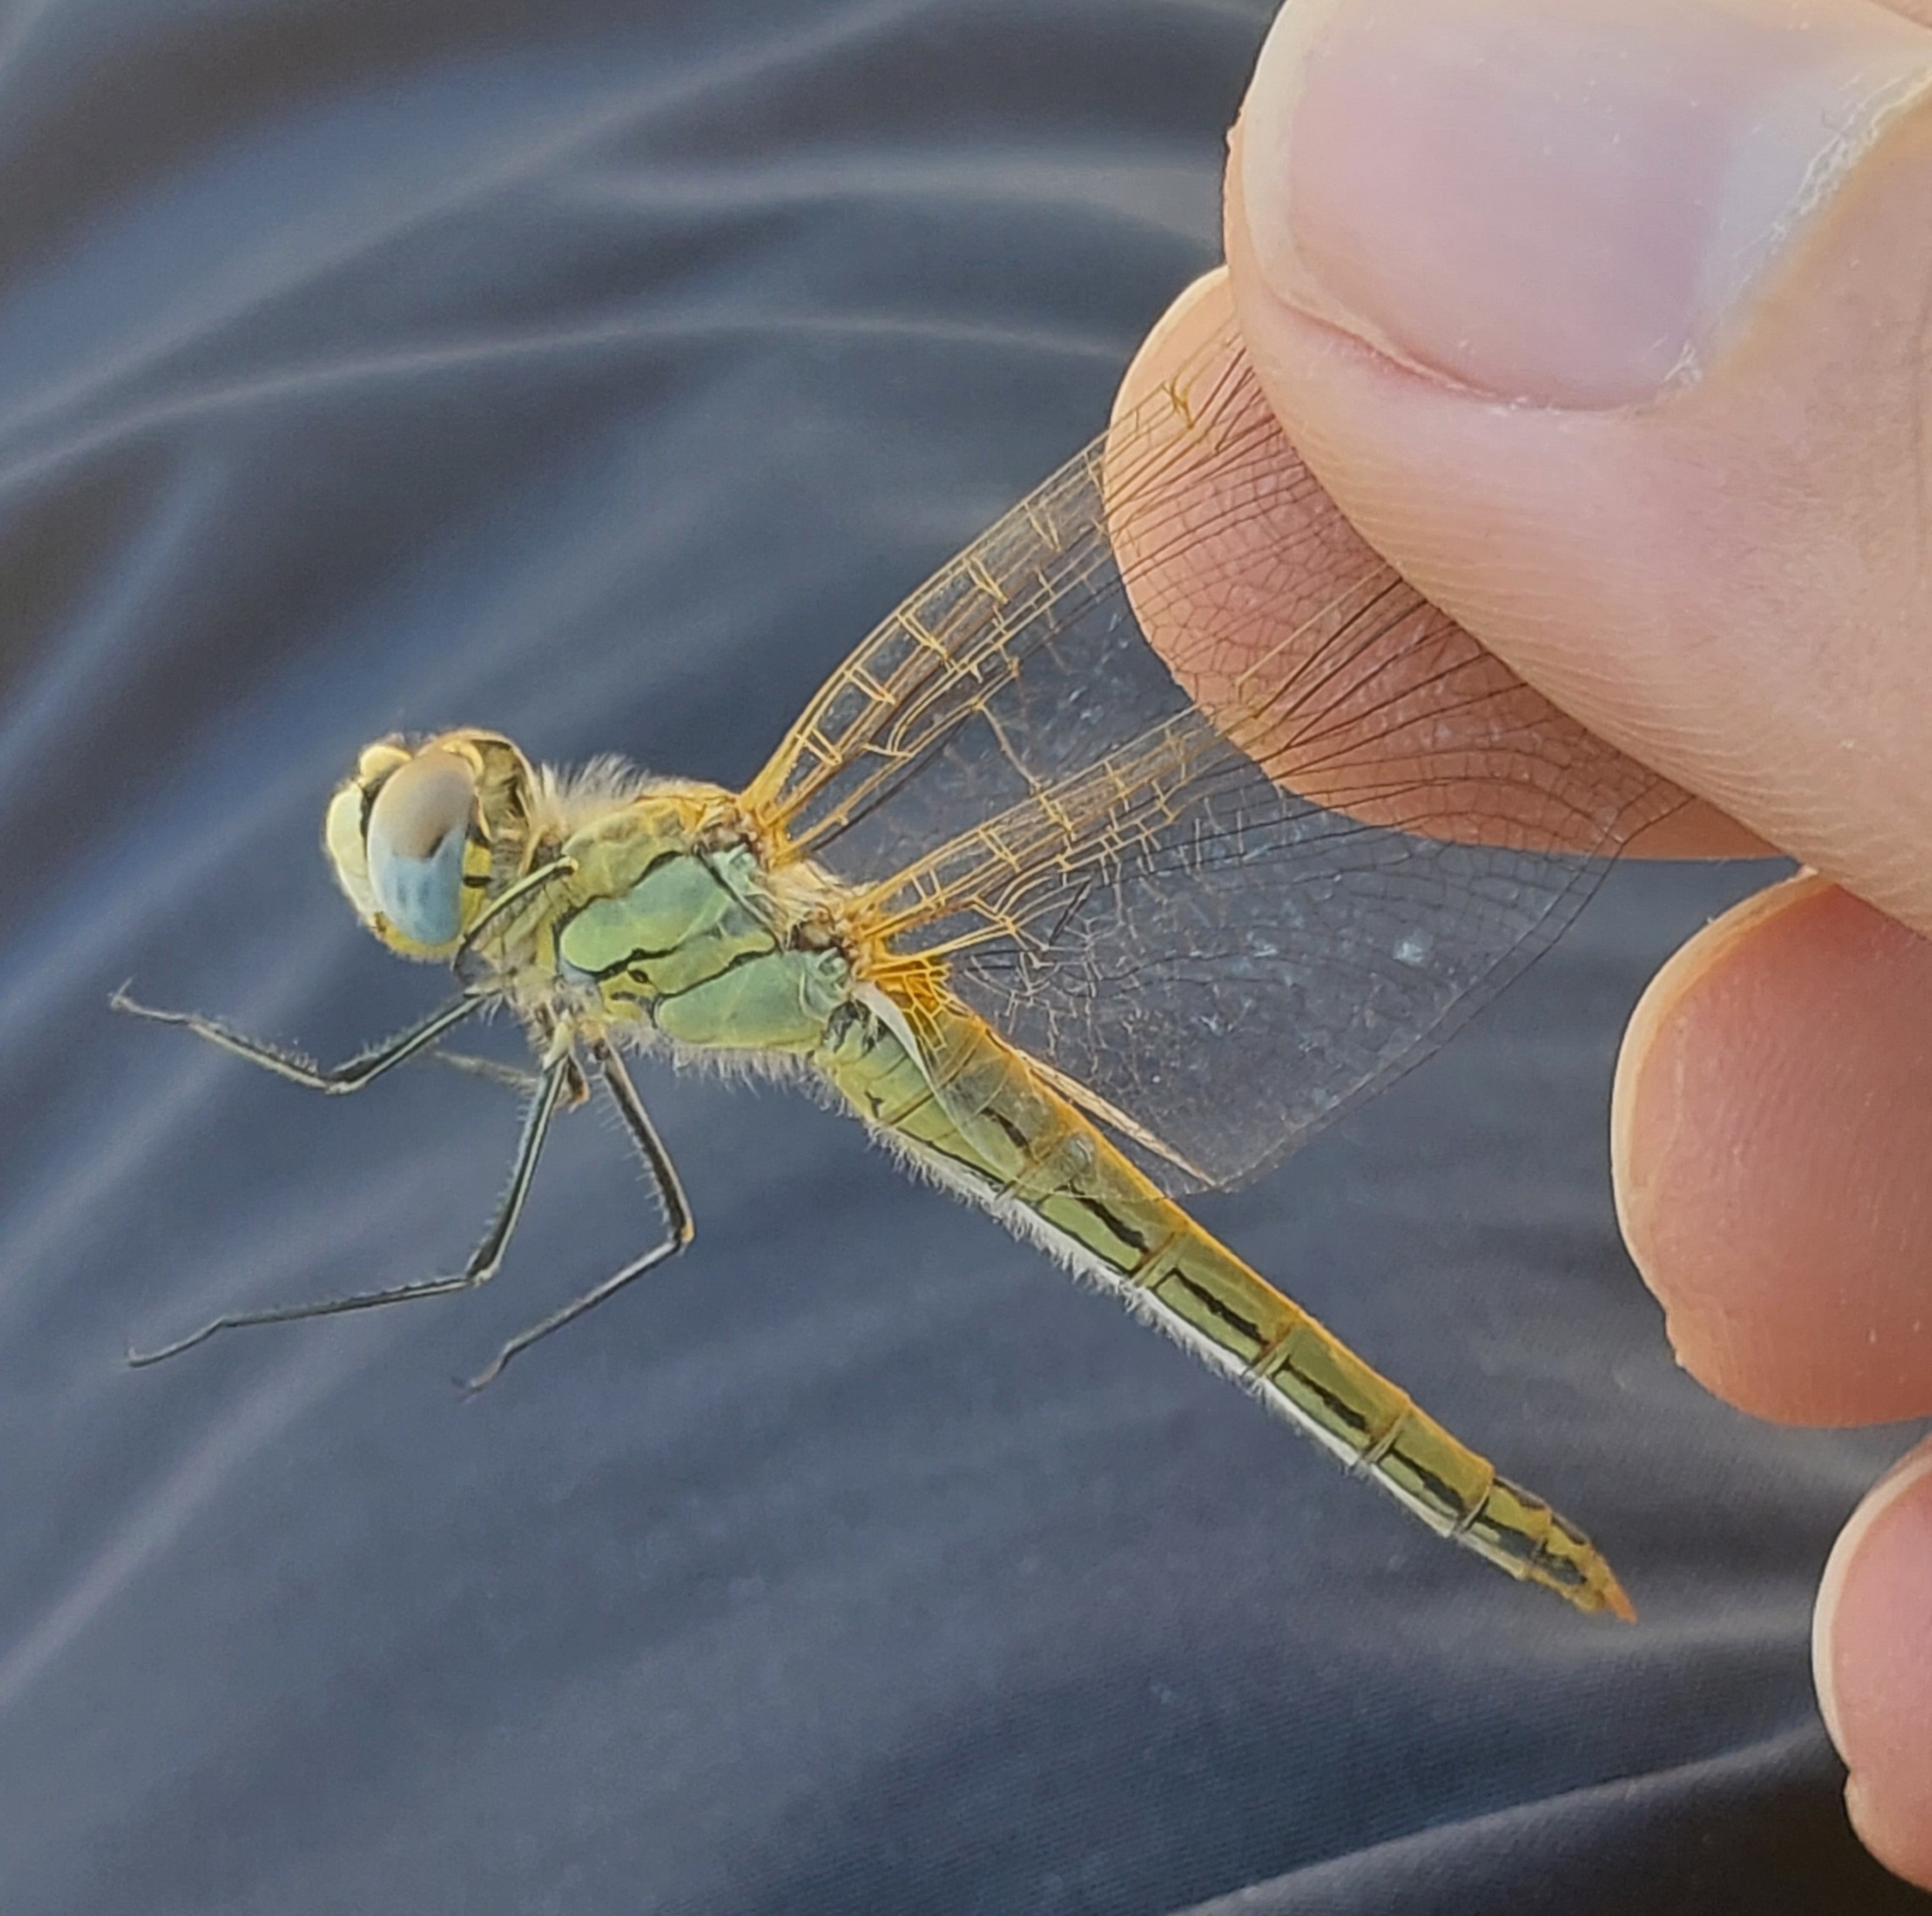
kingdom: Animalia
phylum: Arthropoda
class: Insecta
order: Odonata
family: Libellulidae
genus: Sympetrum
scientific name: Sympetrum fonscolombii
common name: Red-veined darter
